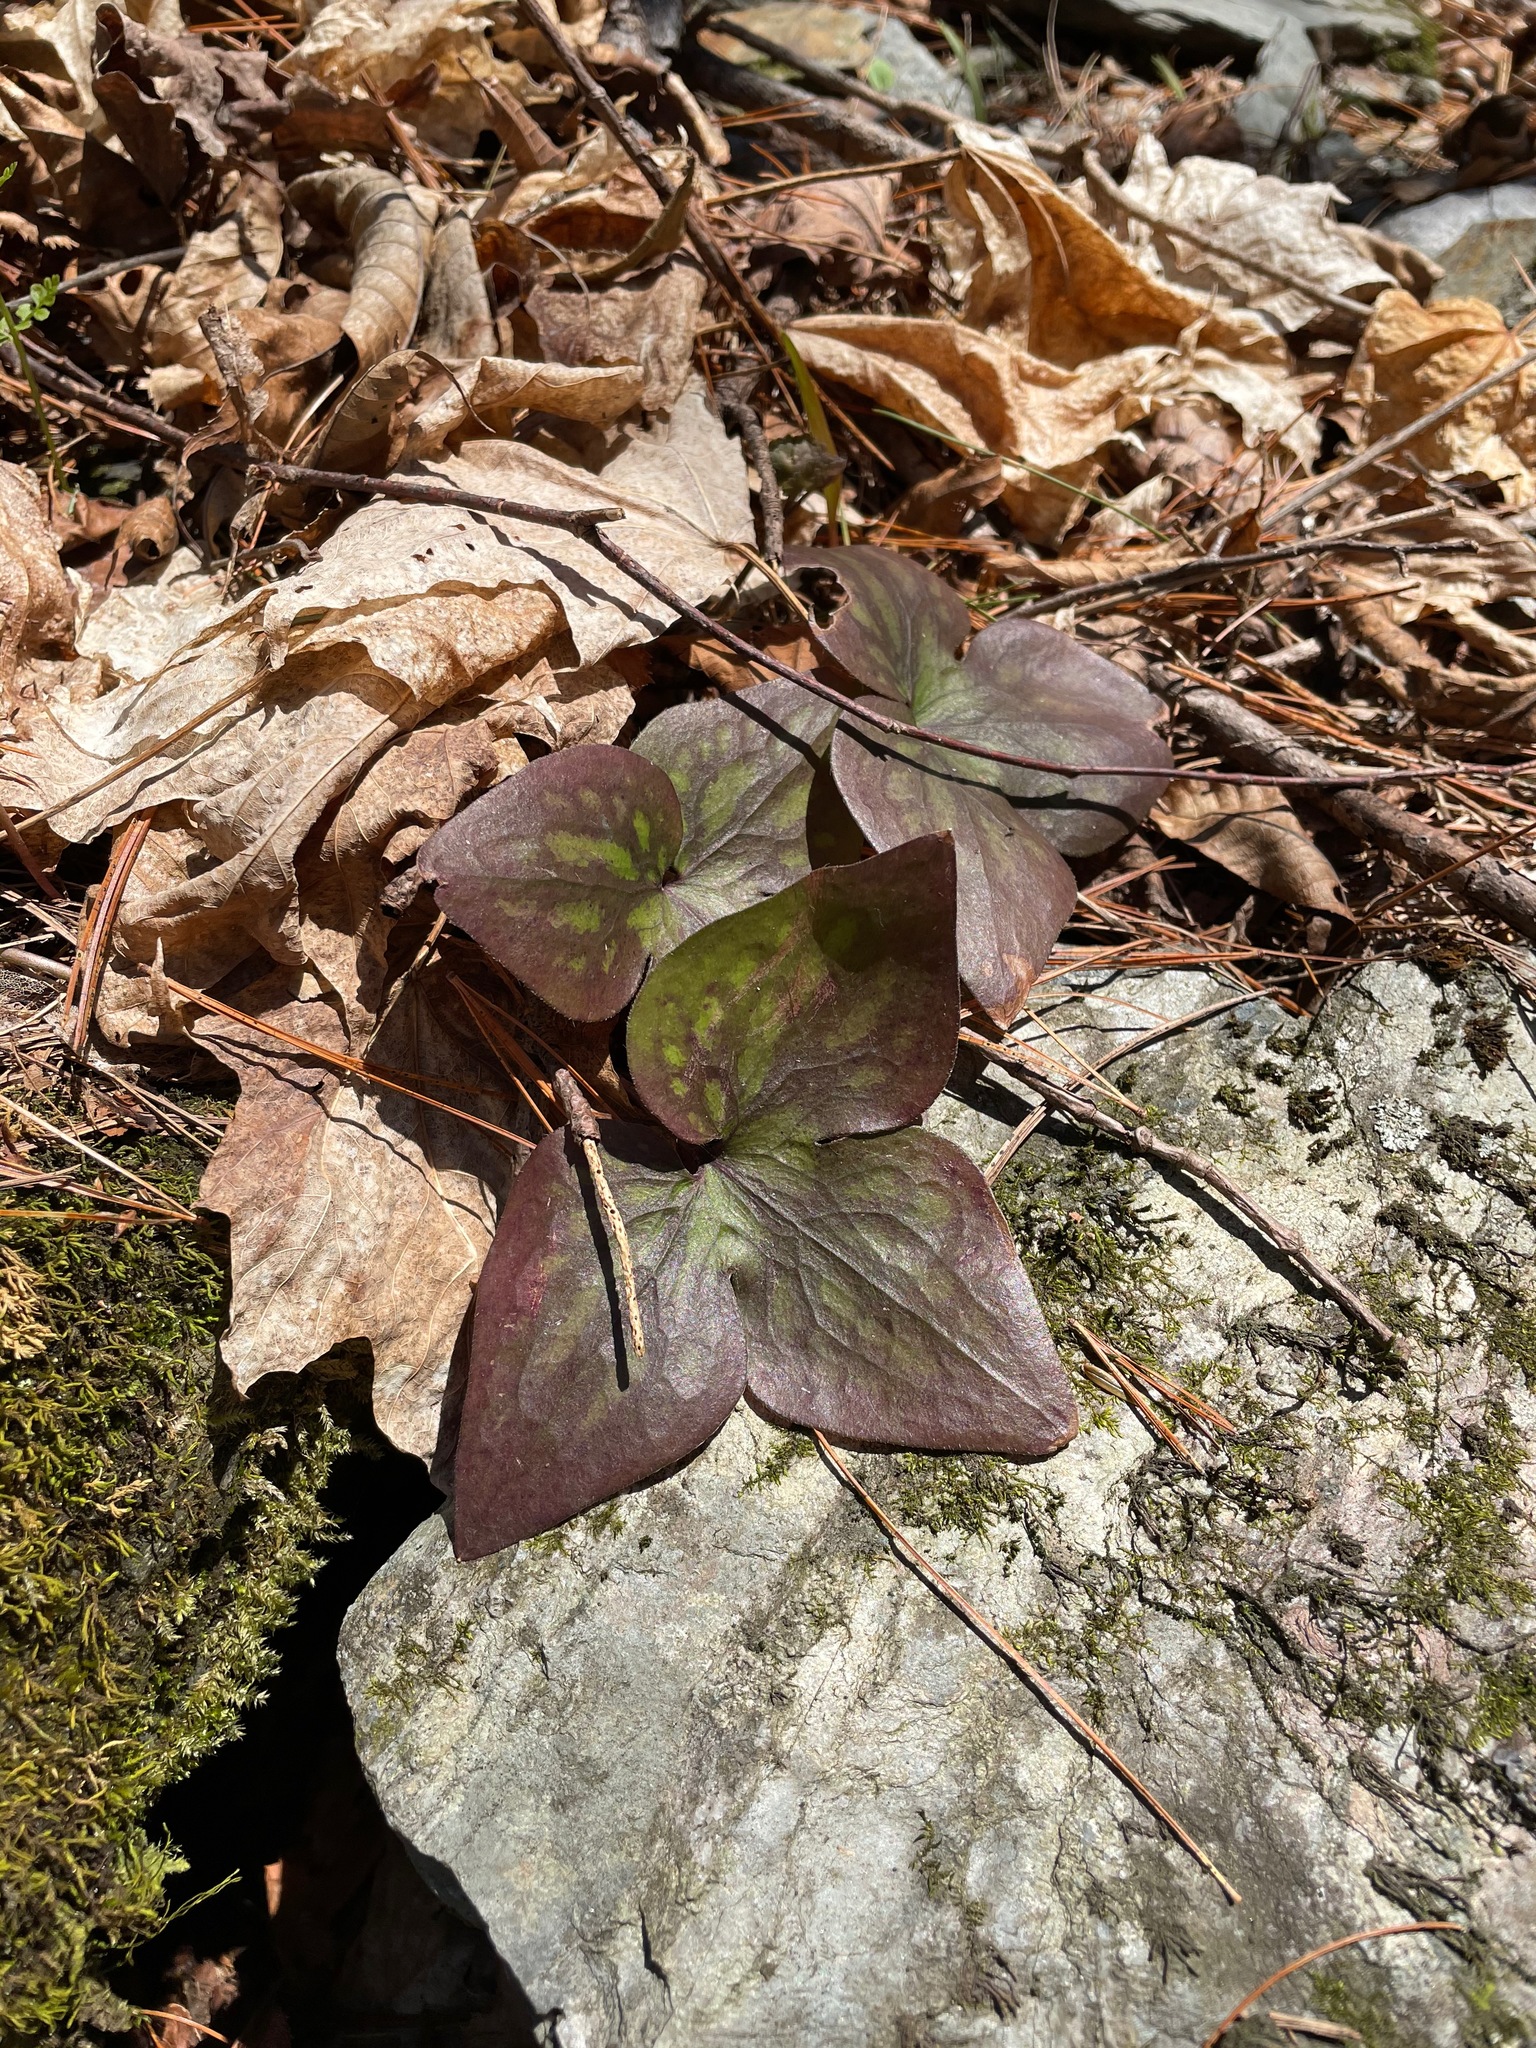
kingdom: Plantae
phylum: Tracheophyta
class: Magnoliopsida
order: Ranunculales
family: Ranunculaceae
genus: Hepatica
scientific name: Hepatica acutiloba
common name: Sharp-lobed hepatica
